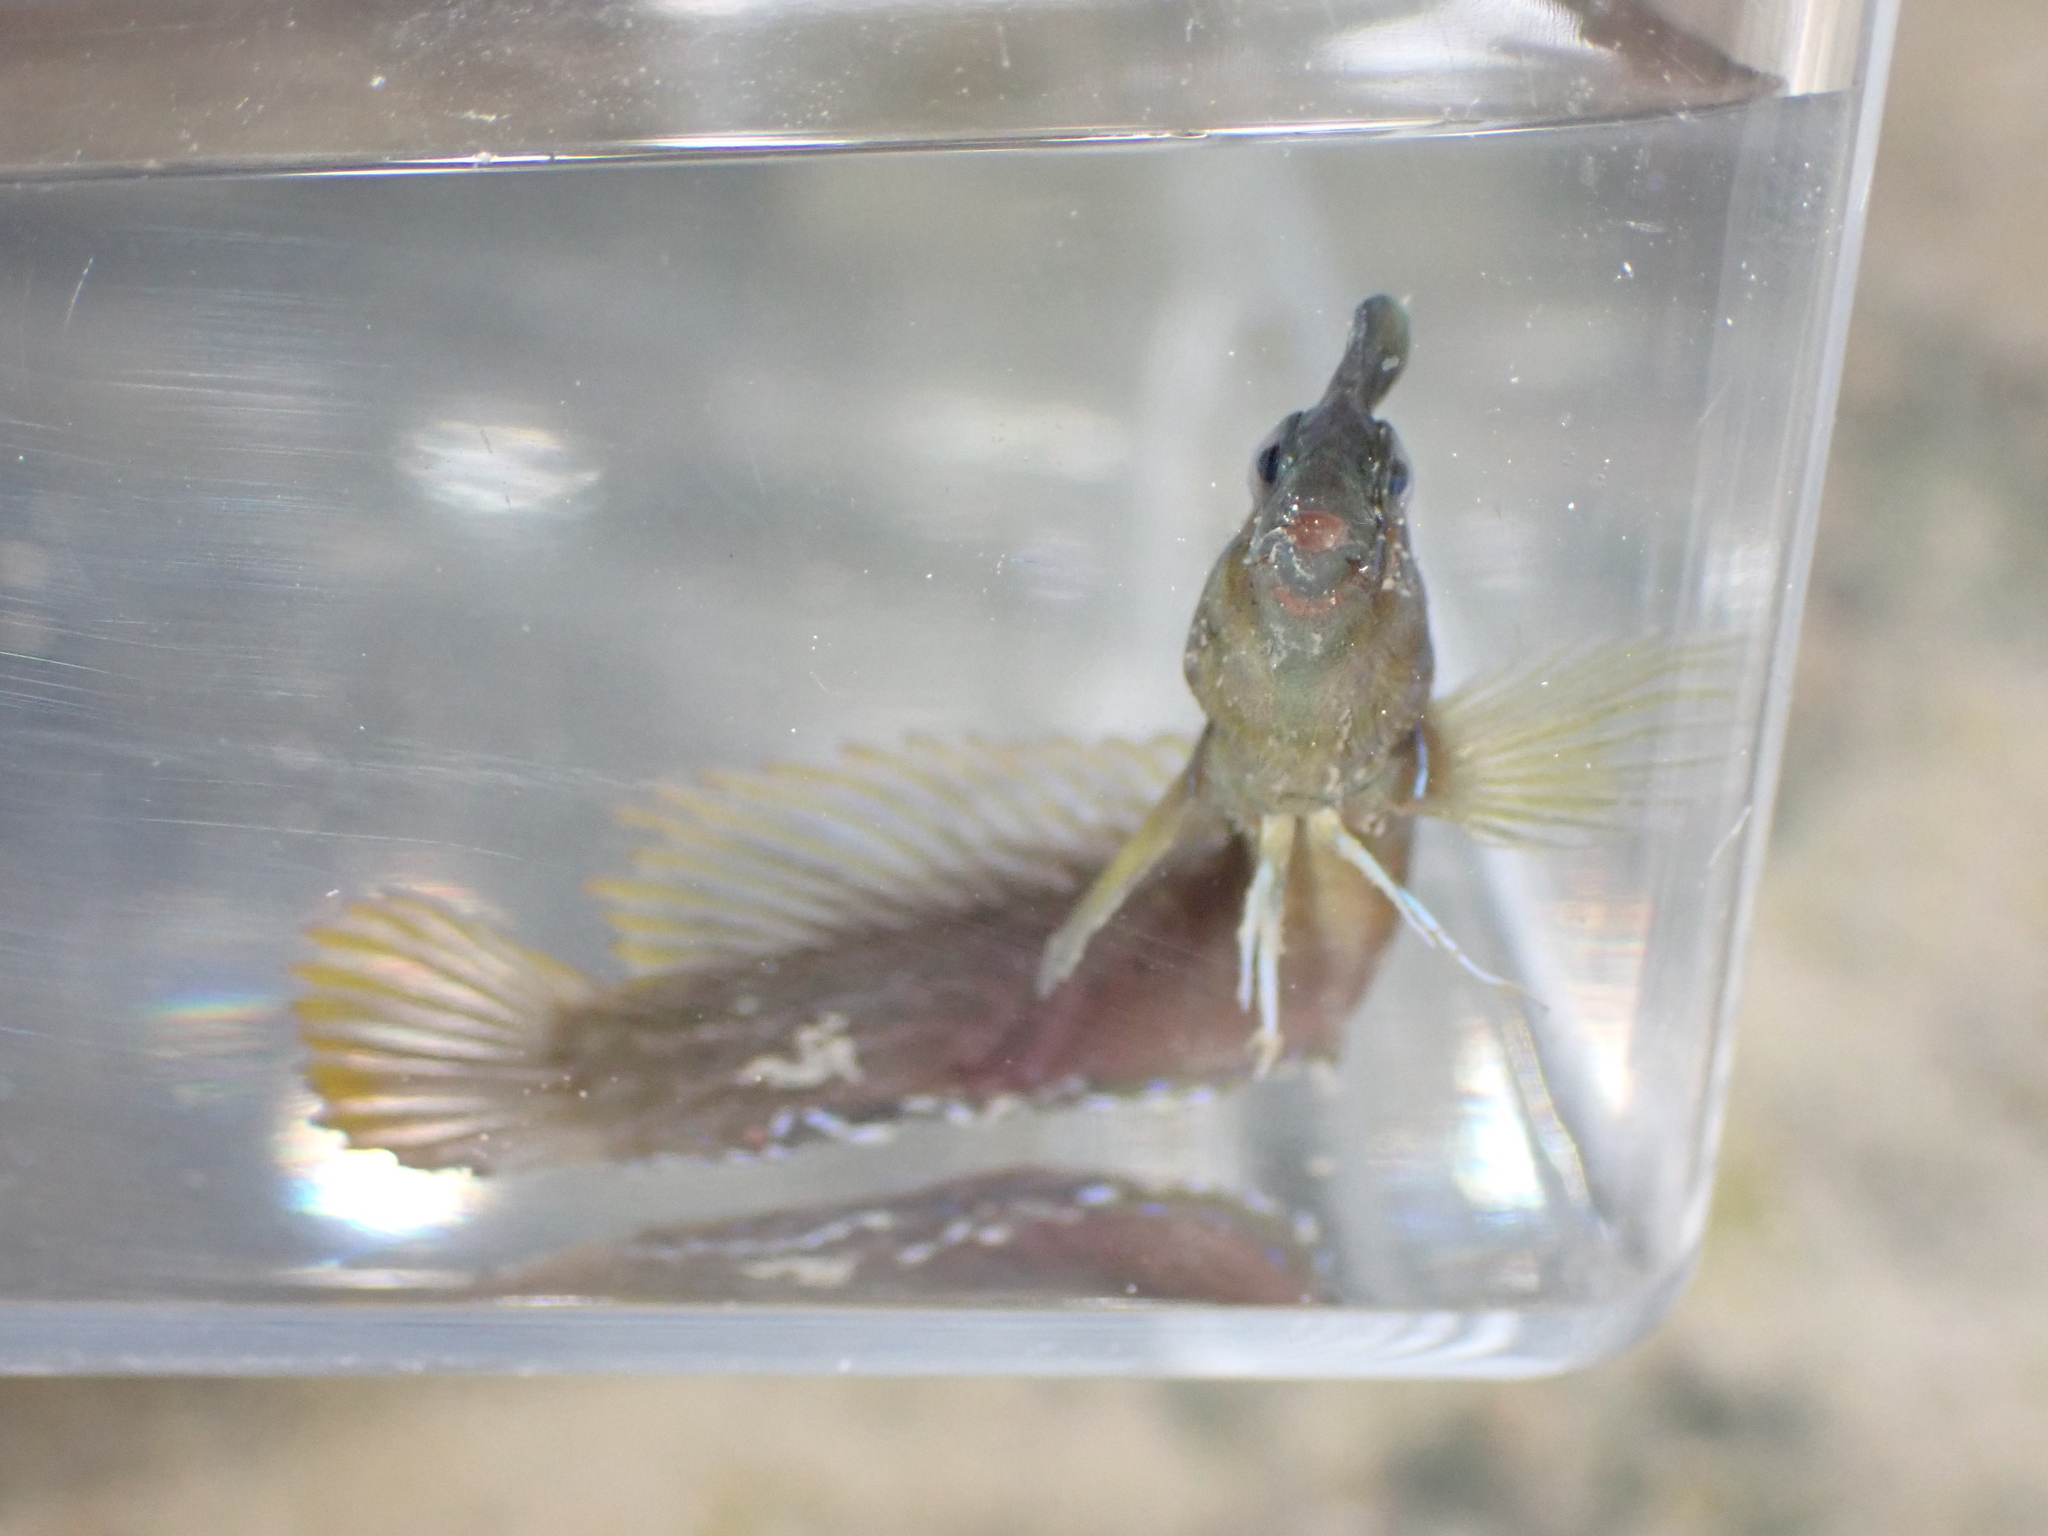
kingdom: Animalia
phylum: Chordata
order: Perciformes
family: Blenniidae
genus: Omobranchus
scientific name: Omobranchus anolius
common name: Oyster blenny
